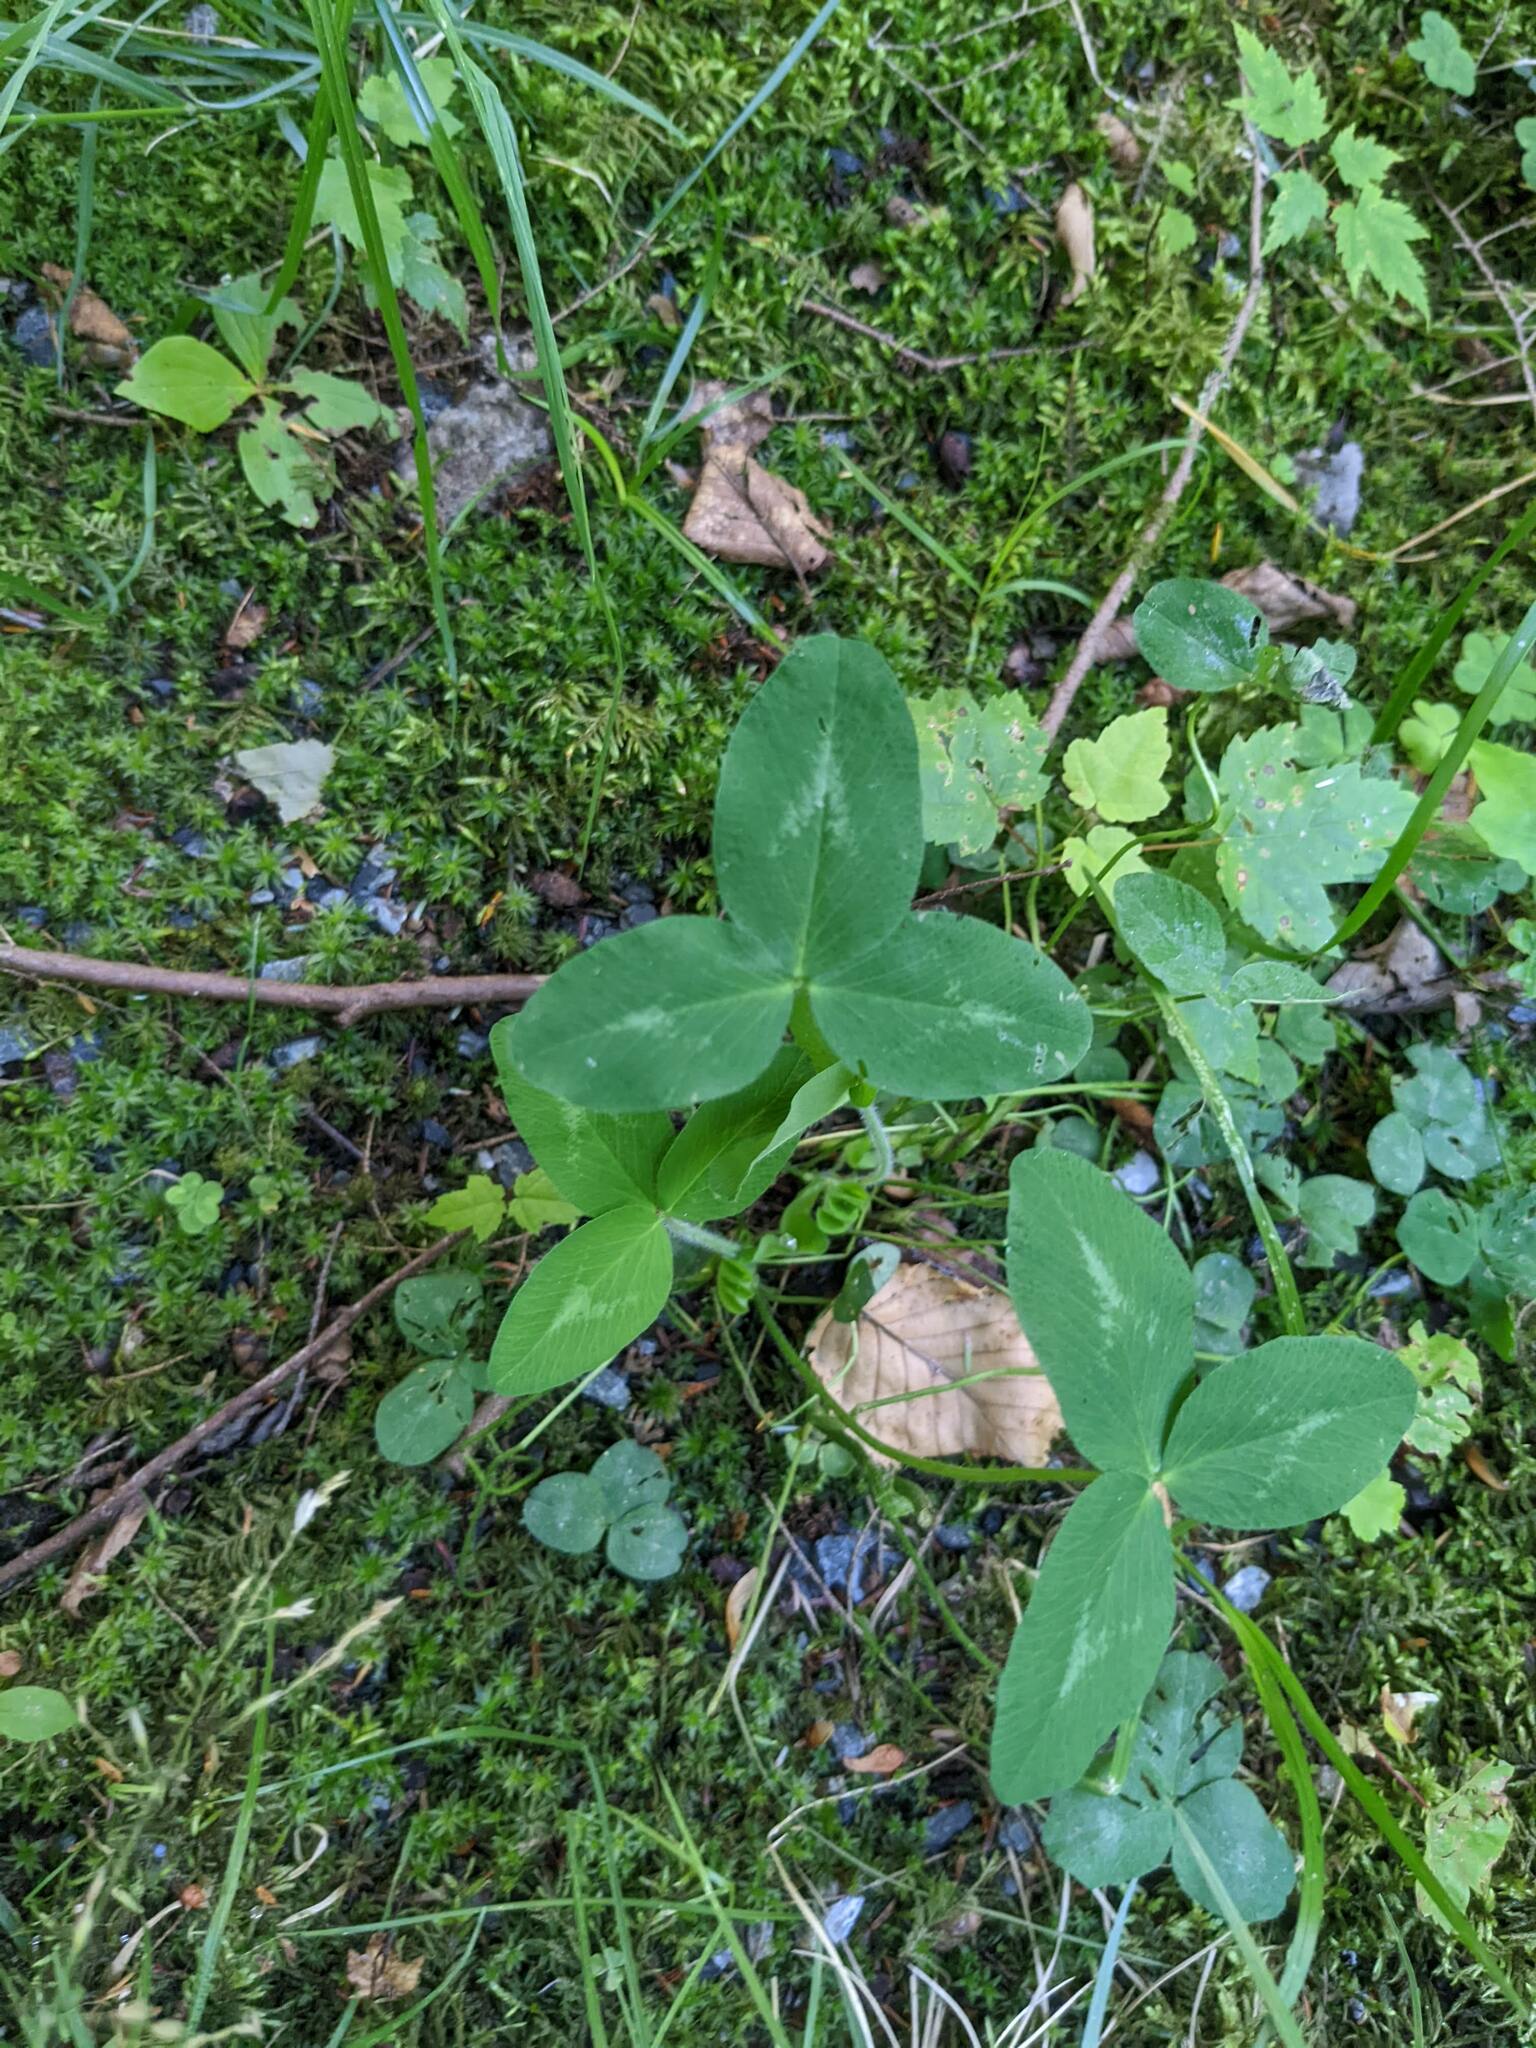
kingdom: Plantae
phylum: Tracheophyta
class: Magnoliopsida
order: Fabales
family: Fabaceae
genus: Trifolium
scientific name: Trifolium pratense
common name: Red clover
